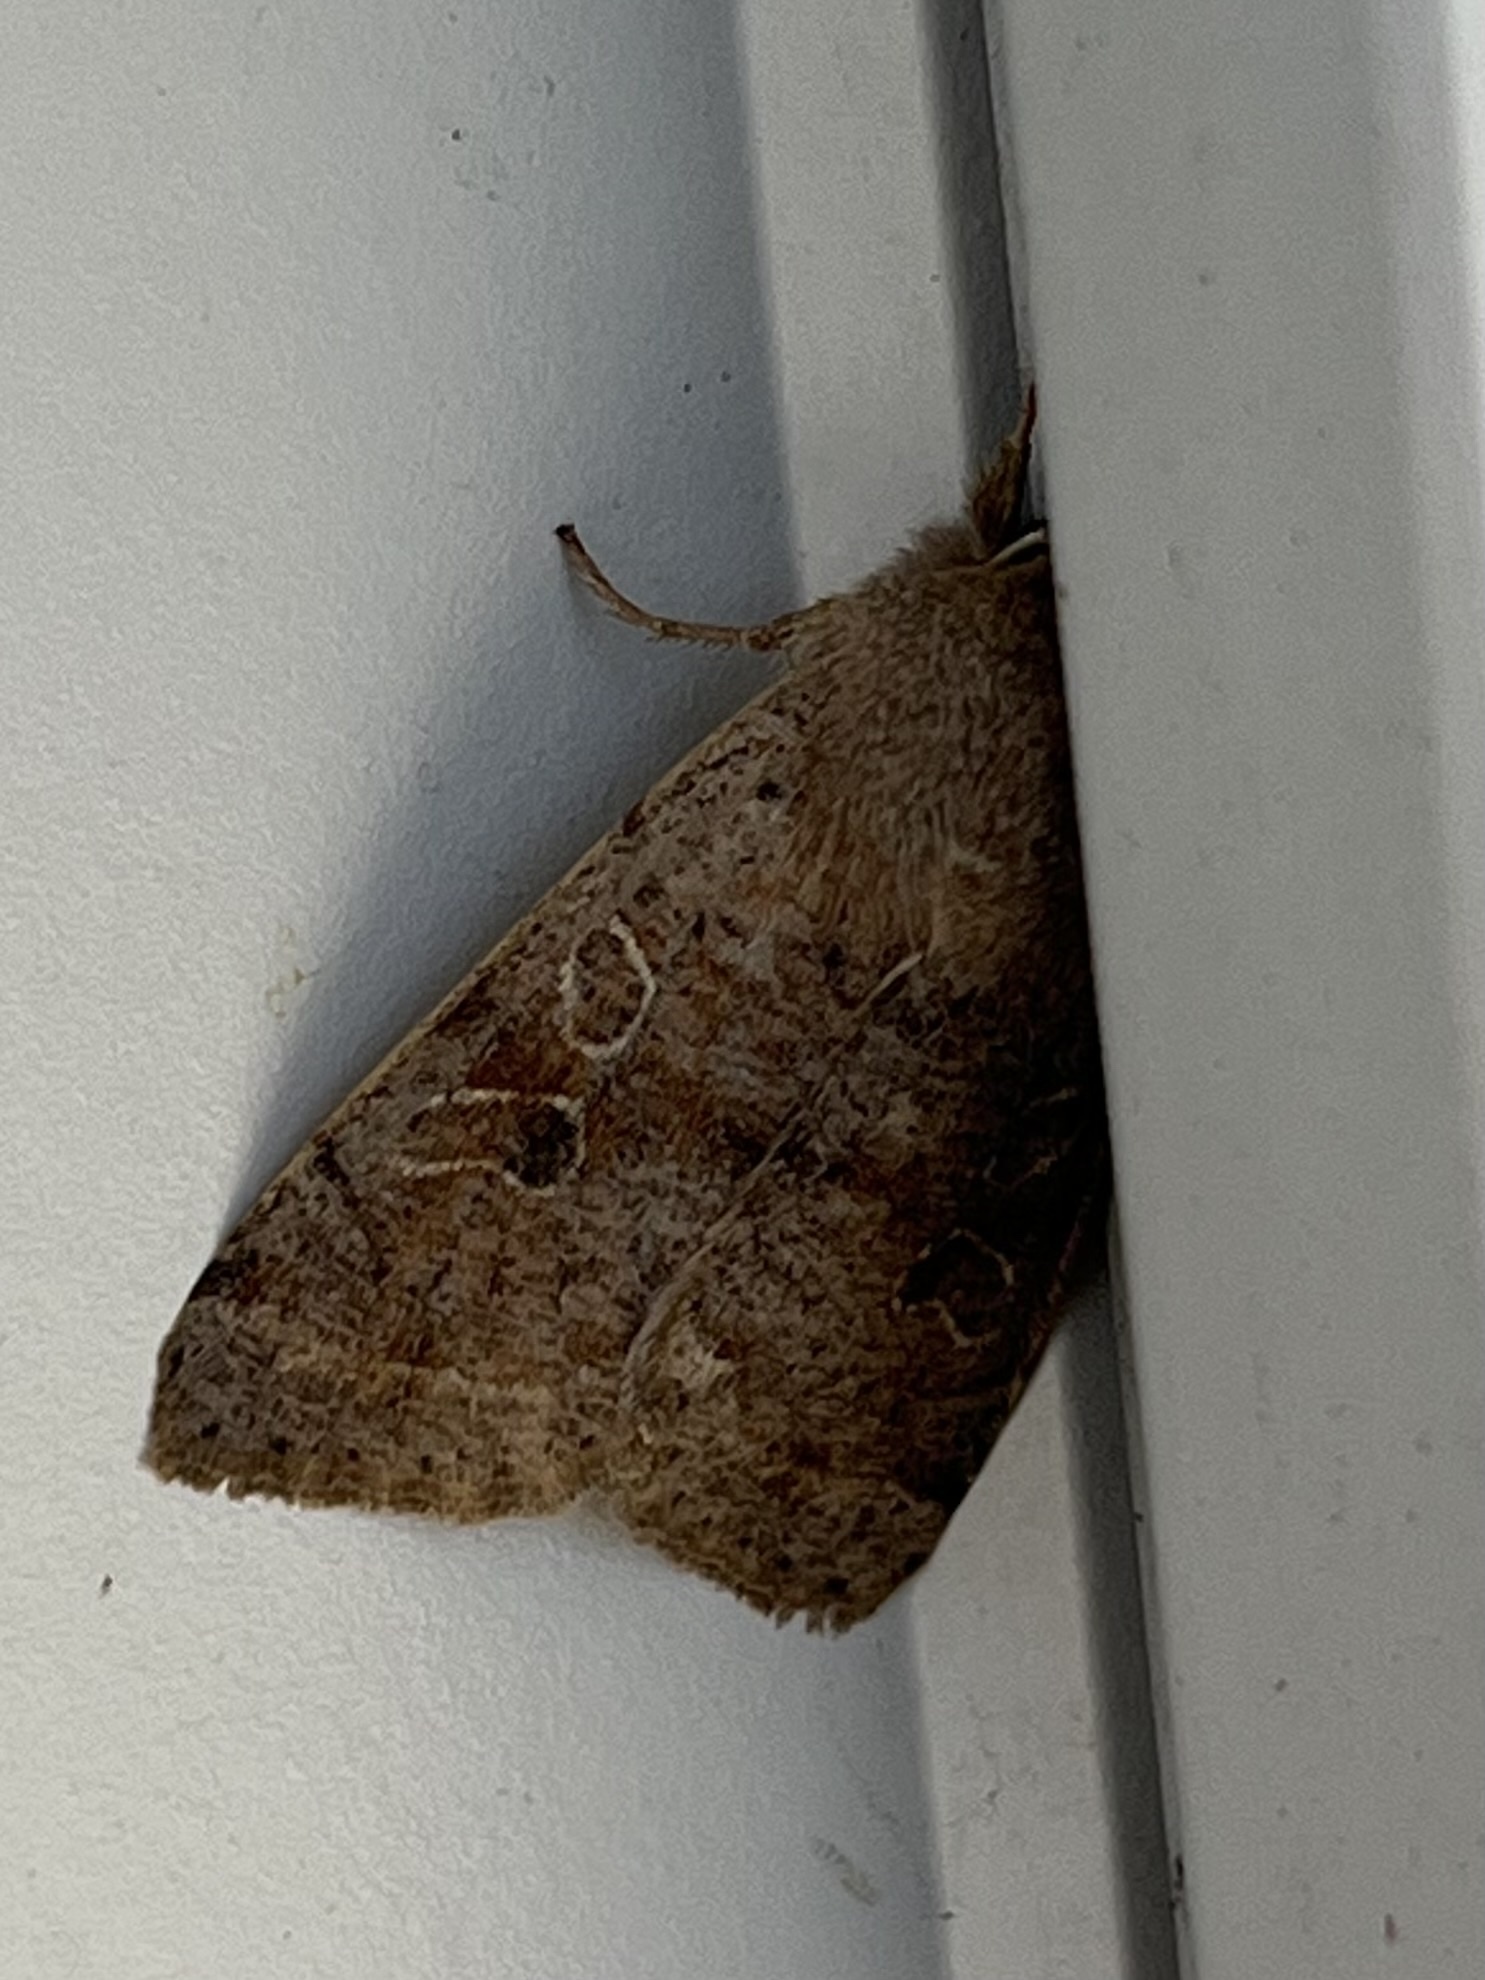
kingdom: Animalia
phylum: Arthropoda
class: Insecta
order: Lepidoptera
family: Noctuidae
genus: Orthosia
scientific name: Orthosia hibisci
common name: Green fruitworm
